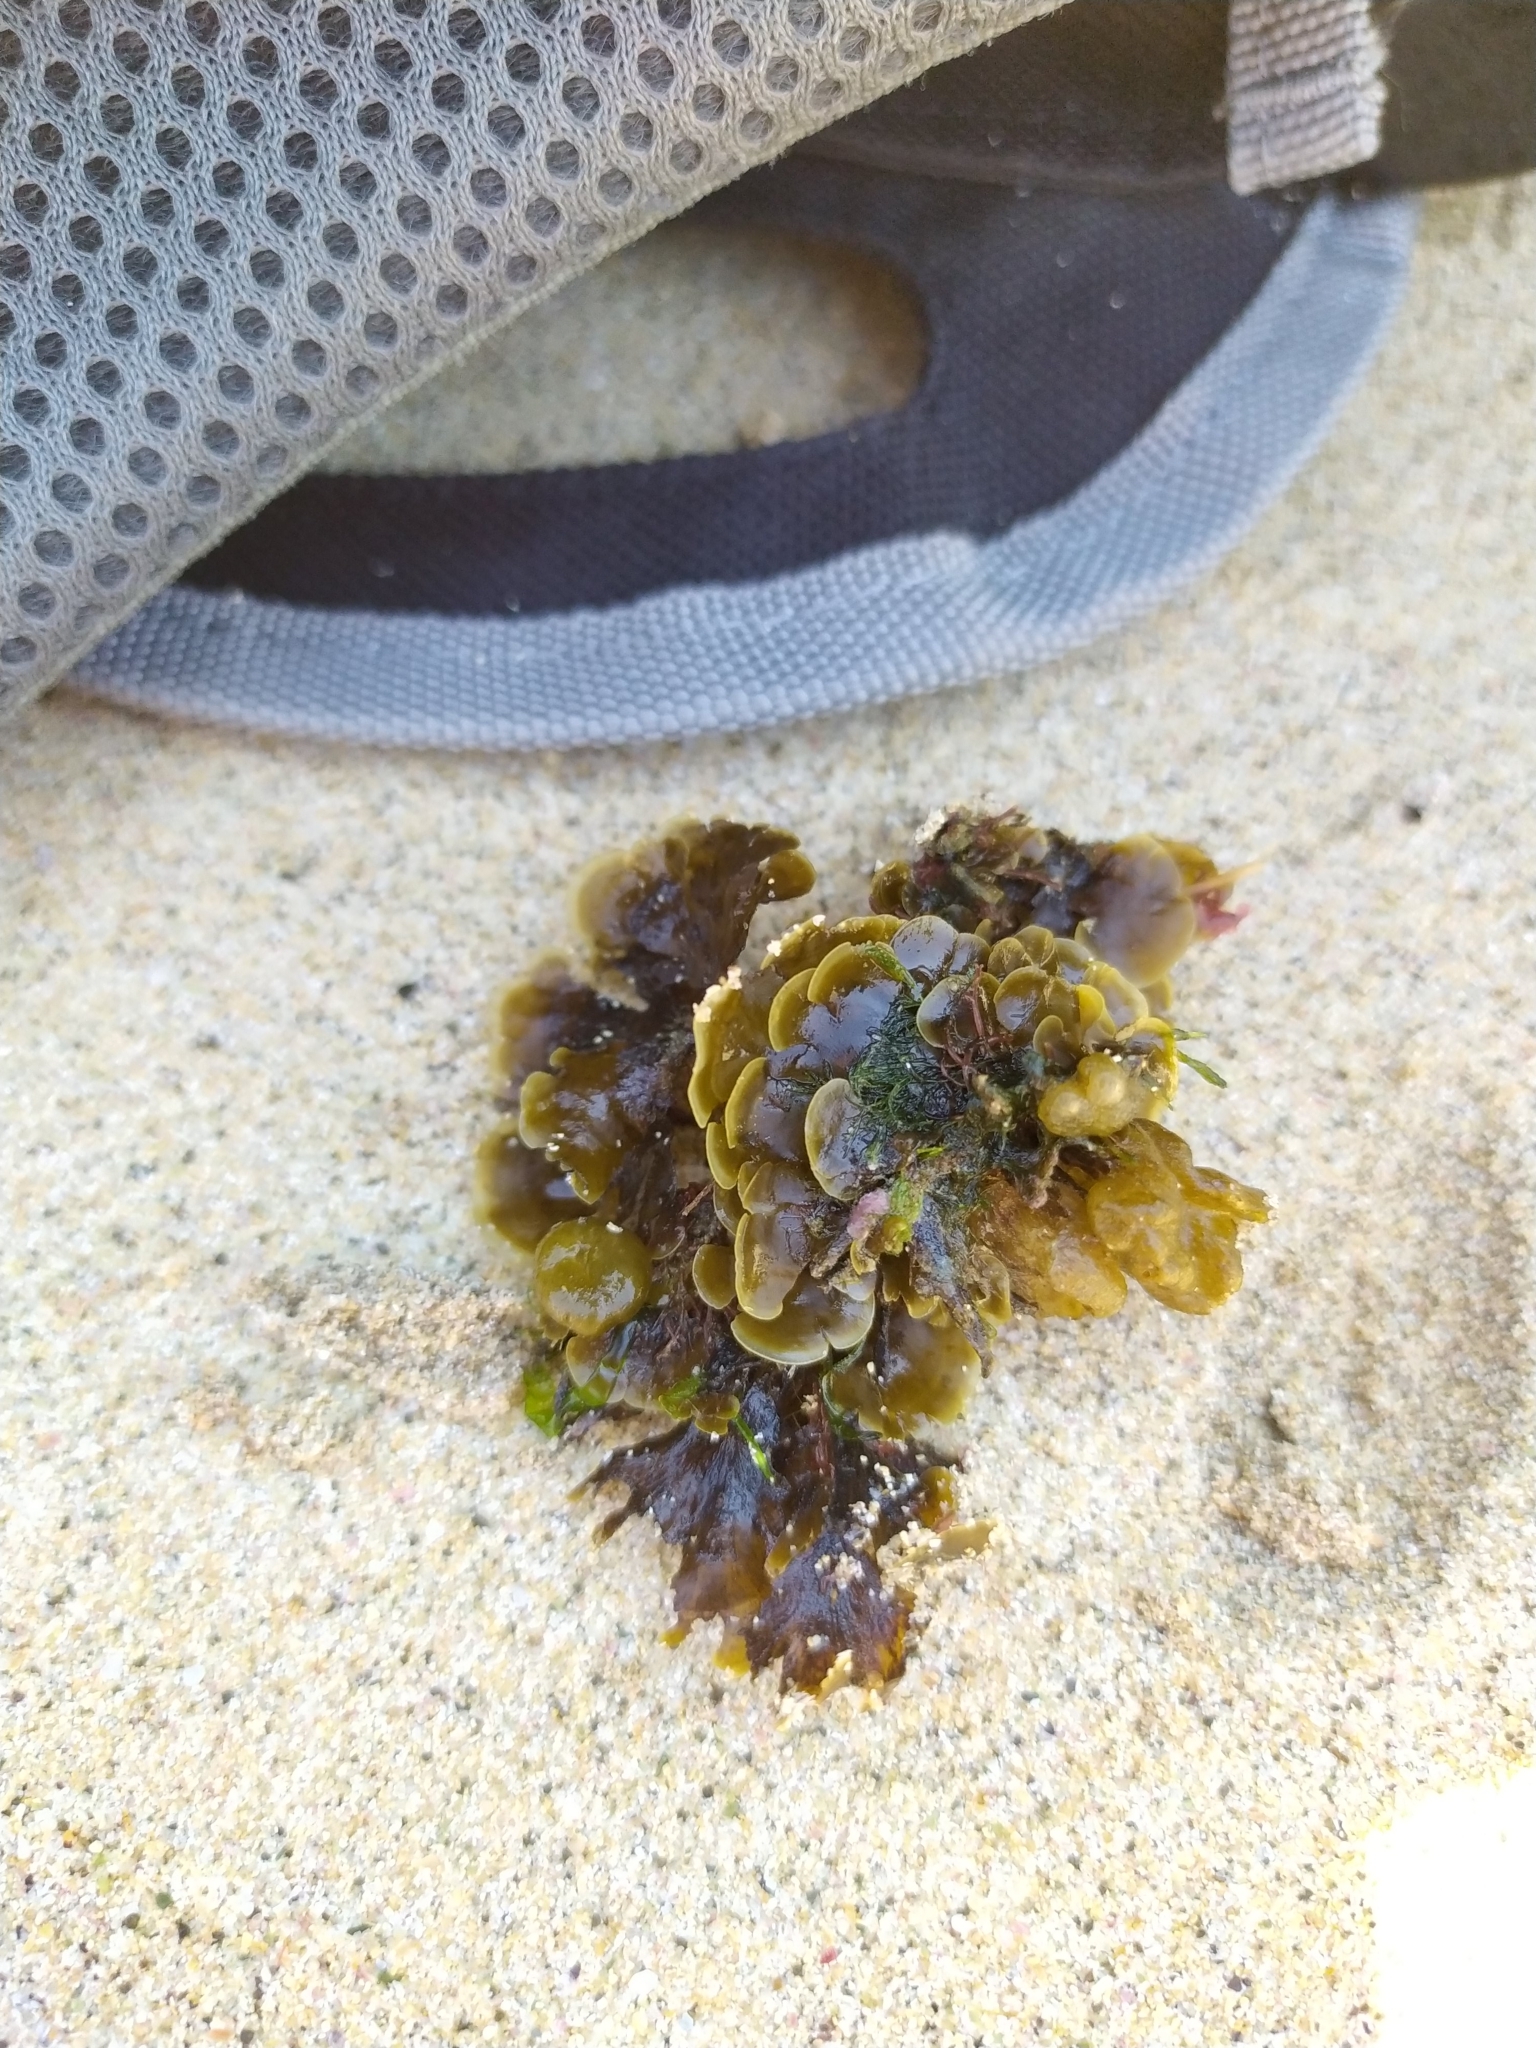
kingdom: Chromista
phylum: Ochrophyta
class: Phaeophyceae
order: Dictyotales
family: Dictyotaceae
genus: Zonaria
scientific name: Zonaria aureomarginata
